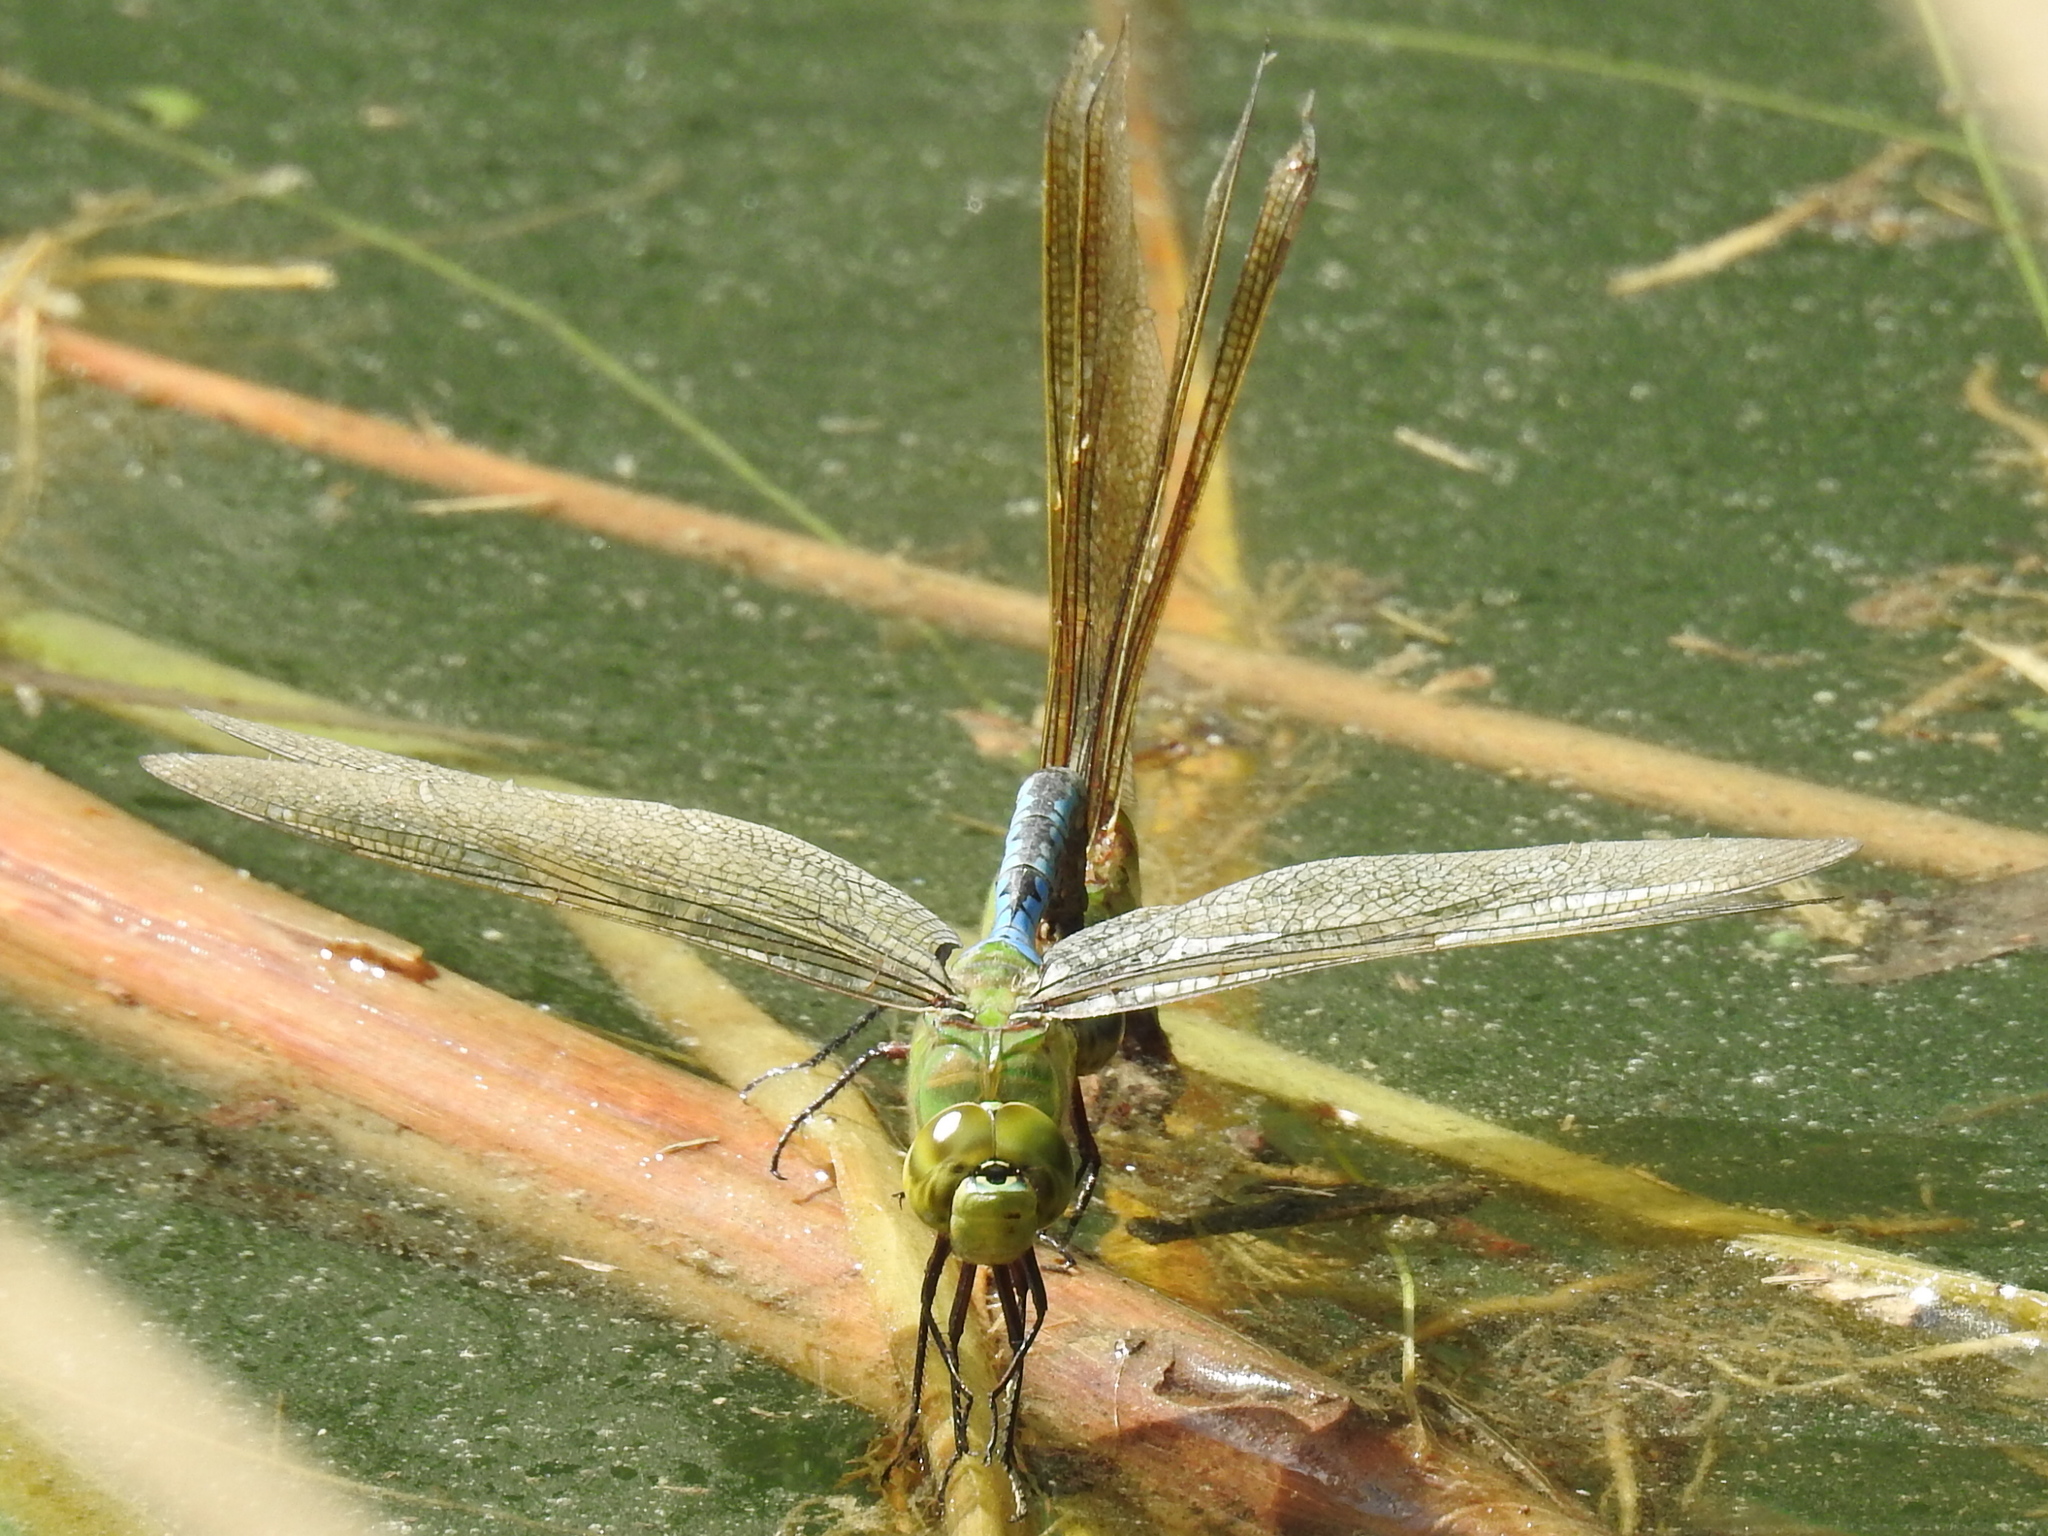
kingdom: Animalia
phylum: Arthropoda
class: Insecta
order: Odonata
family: Aeshnidae
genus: Anax
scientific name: Anax junius
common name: Common green darner
